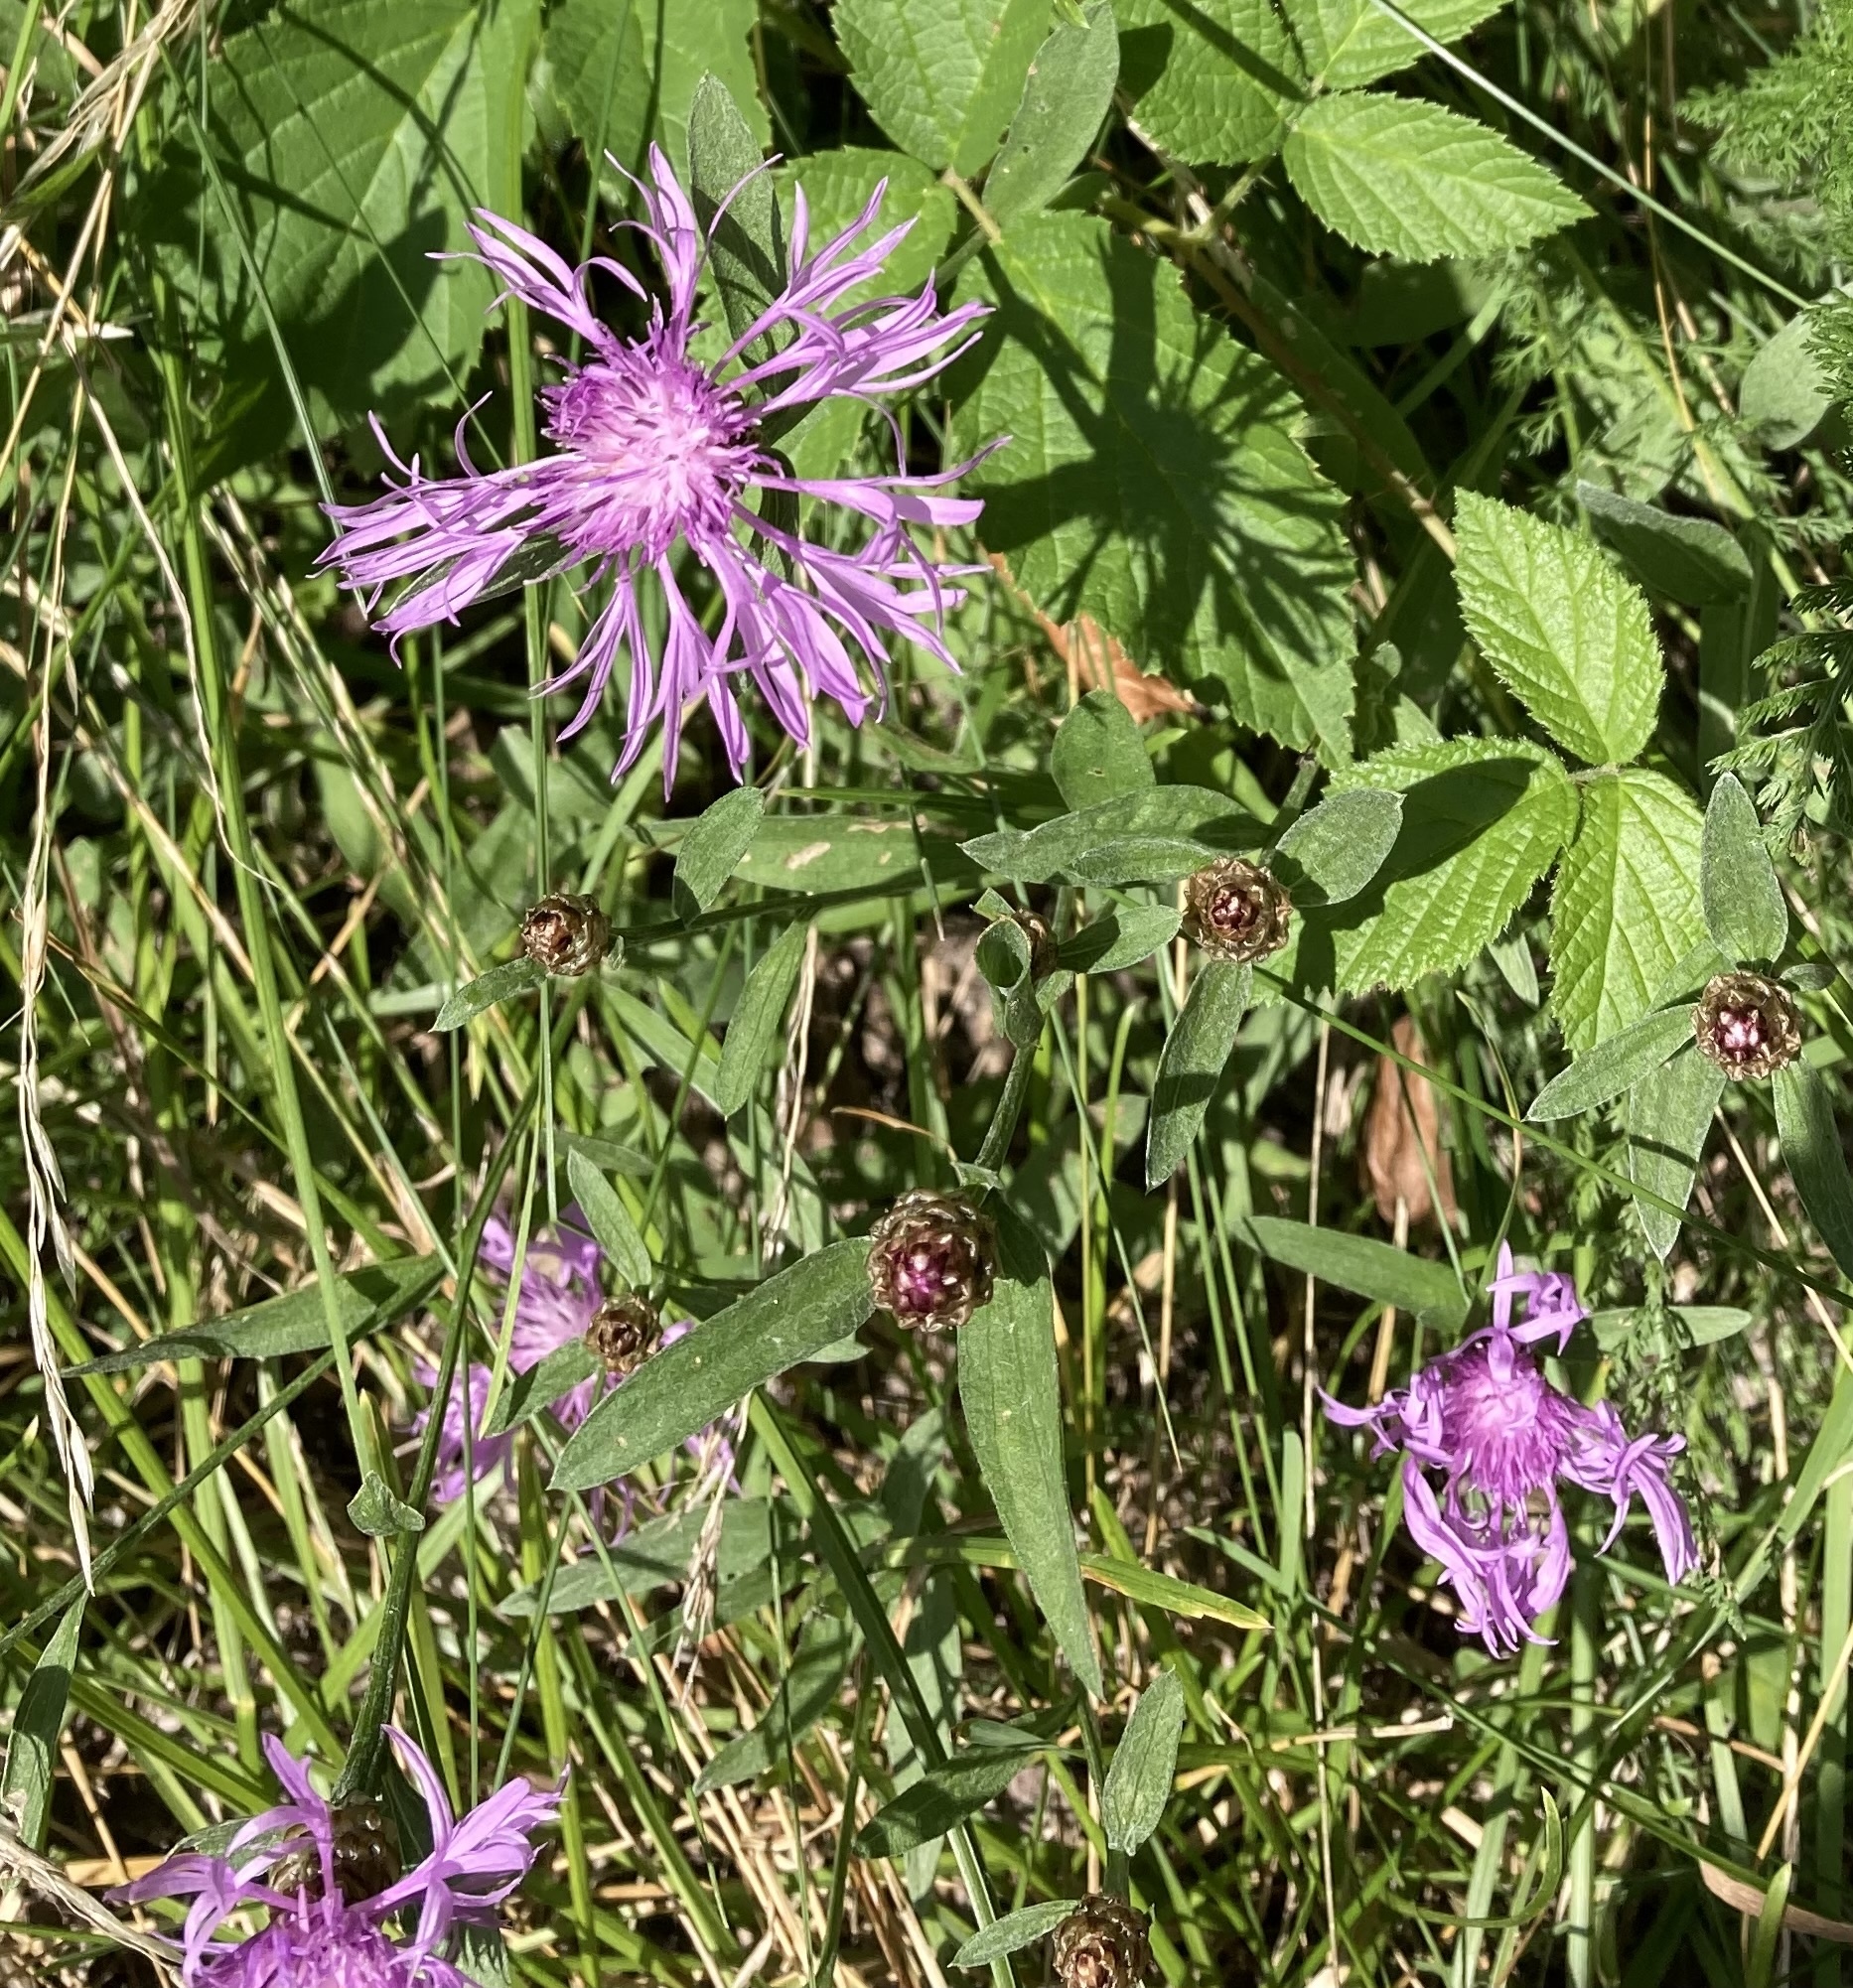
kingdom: Plantae
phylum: Tracheophyta
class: Magnoliopsida
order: Asterales
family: Asteraceae
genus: Centaurea
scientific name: Centaurea jacea
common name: Brown knapweed
